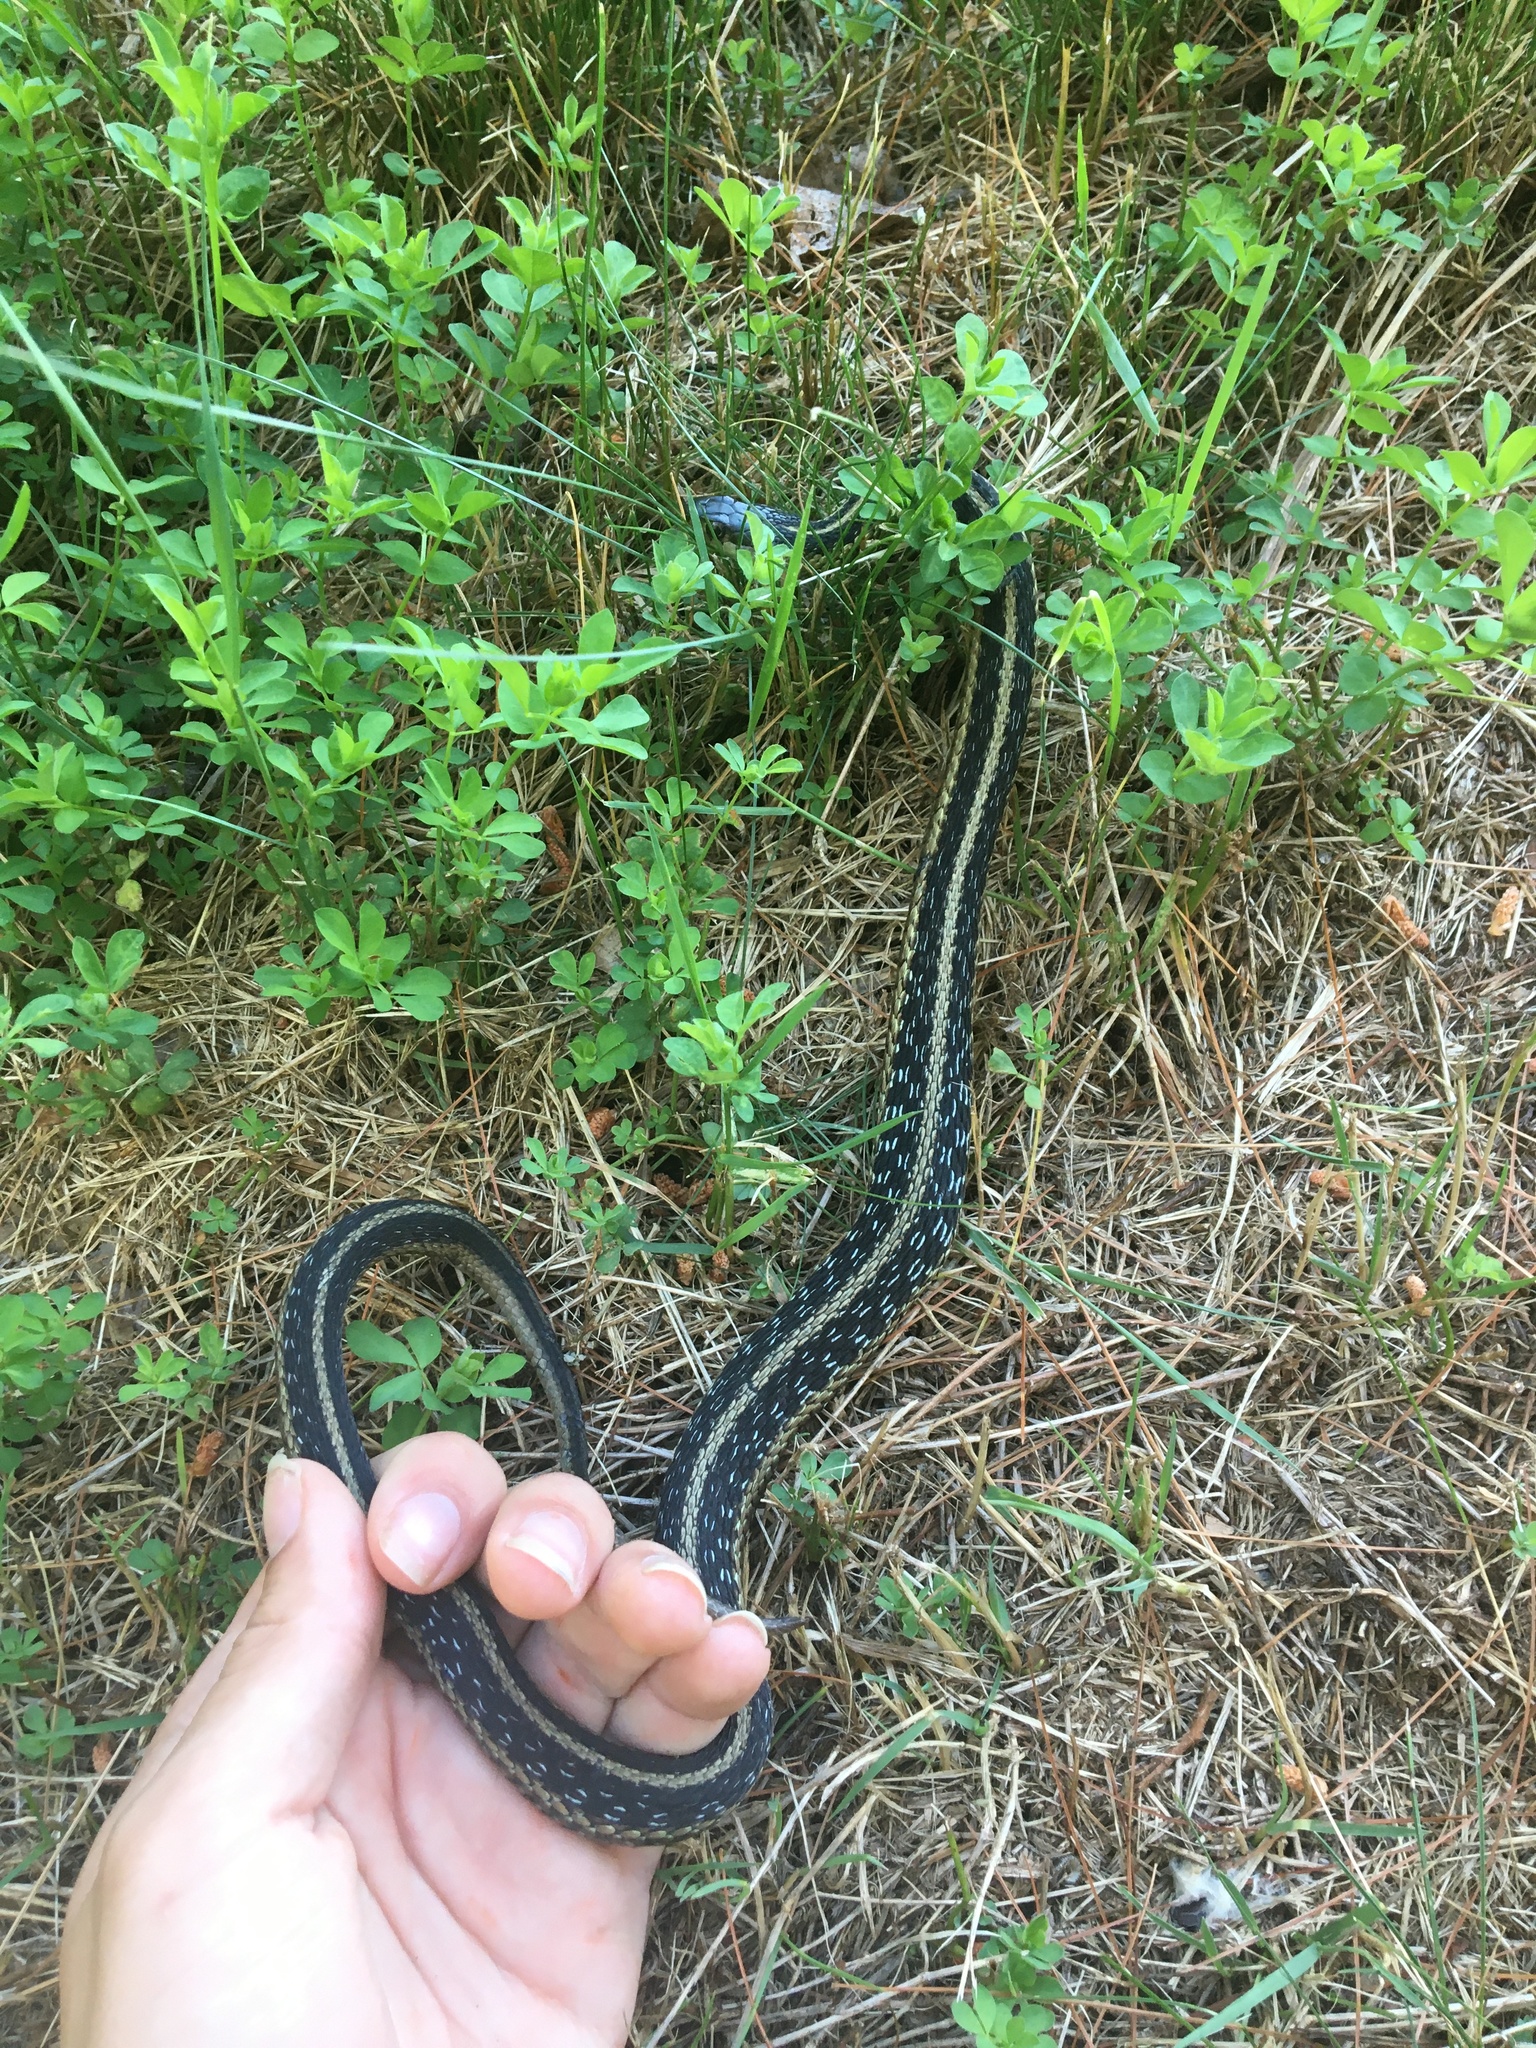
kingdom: Animalia
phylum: Chordata
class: Squamata
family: Colubridae
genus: Thamnophis
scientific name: Thamnophis sirtalis
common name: Common garter snake
